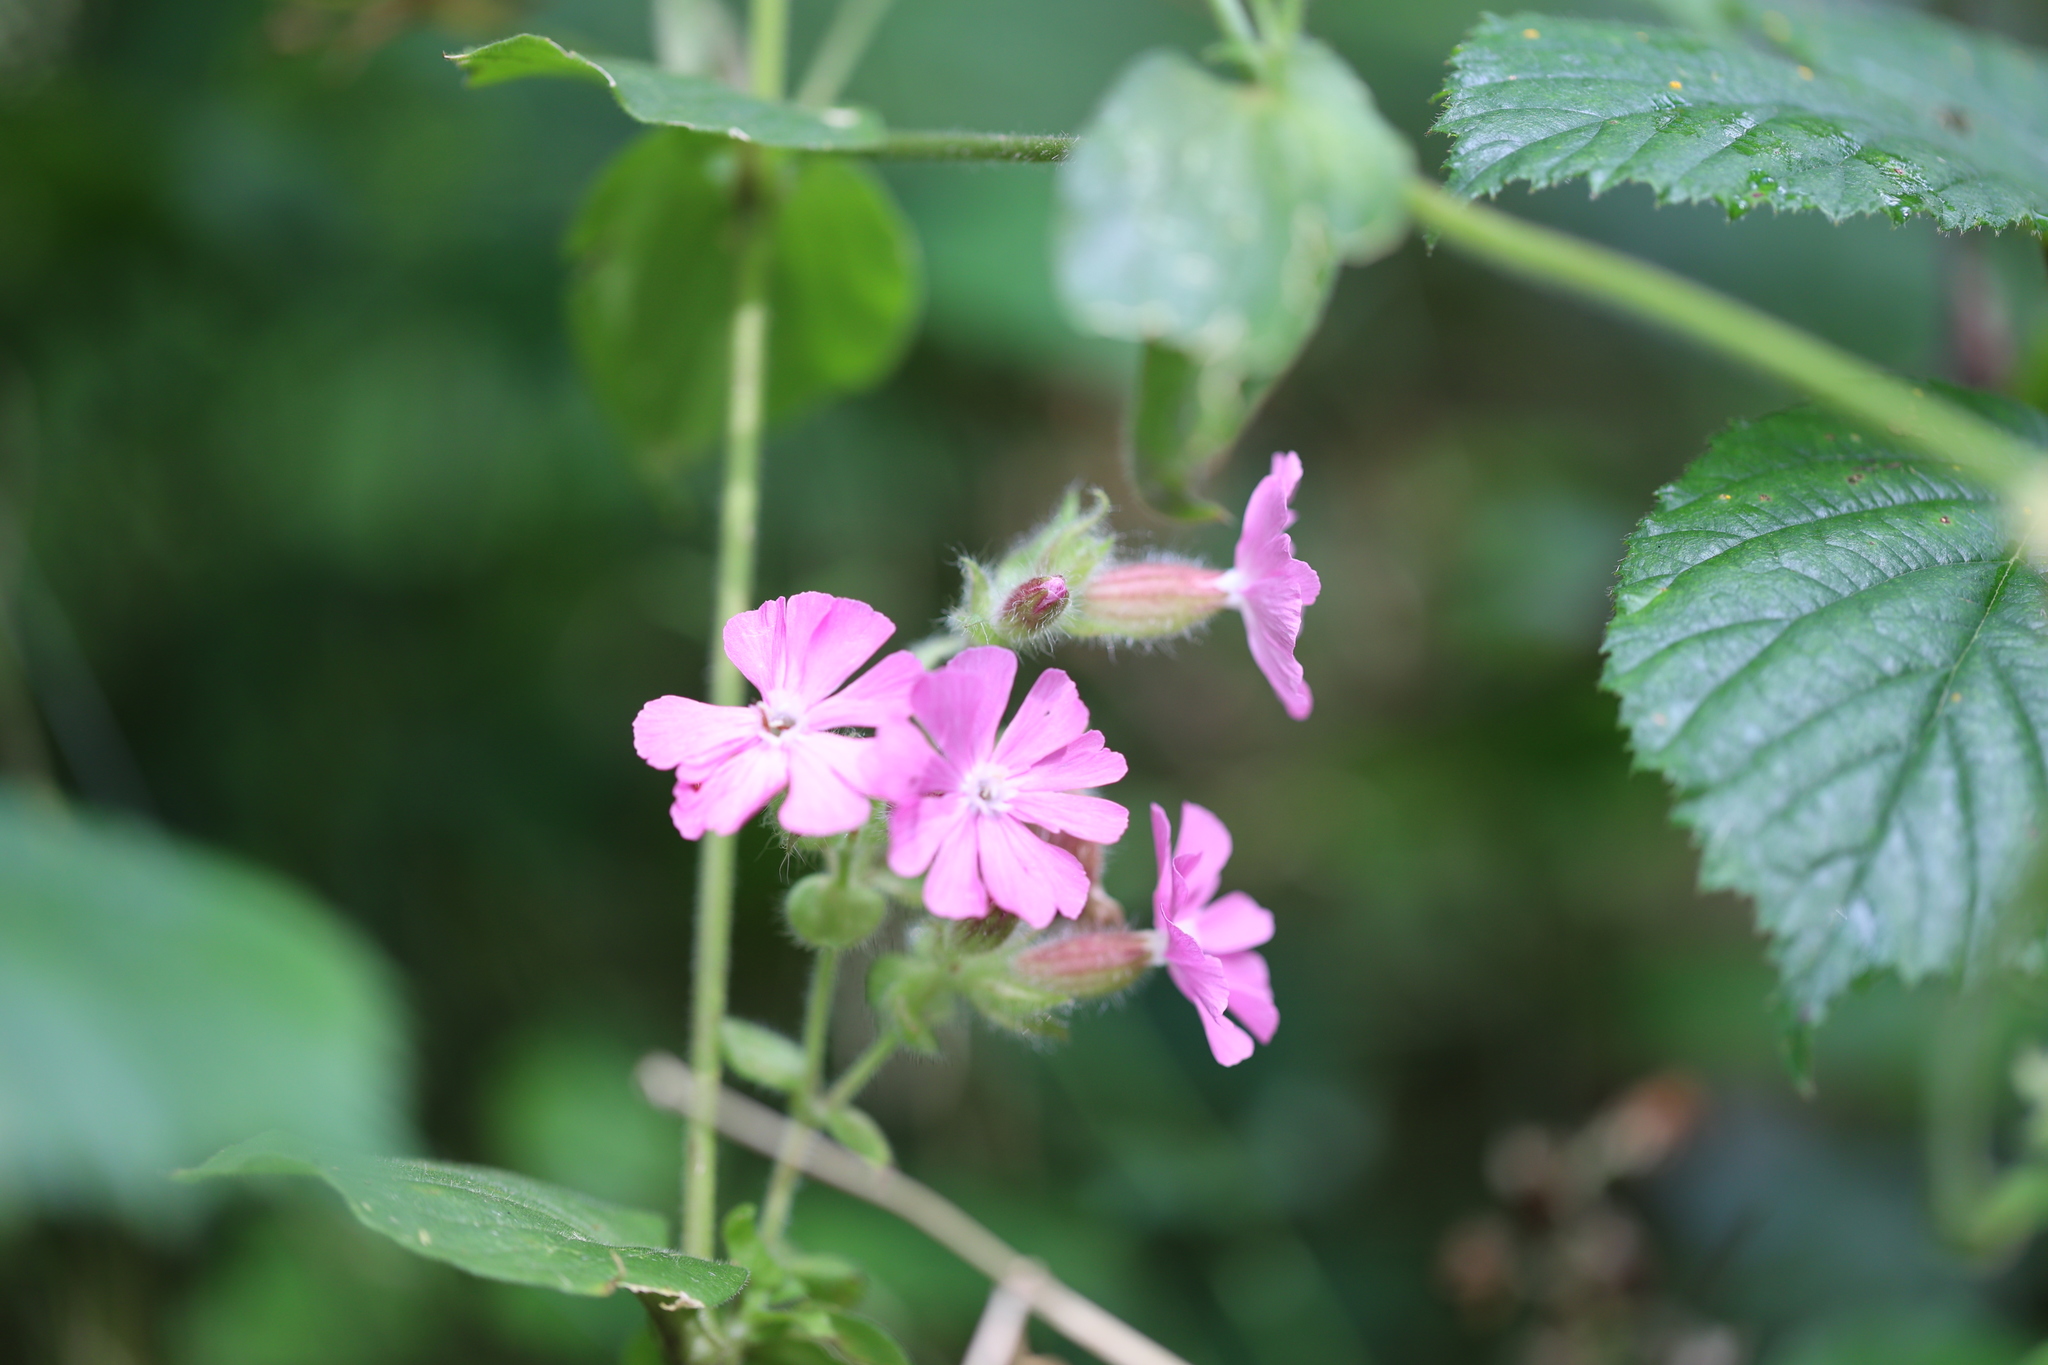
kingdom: Plantae
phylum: Tracheophyta
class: Magnoliopsida
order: Caryophyllales
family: Caryophyllaceae
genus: Silene
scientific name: Silene dioica
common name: Red campion
